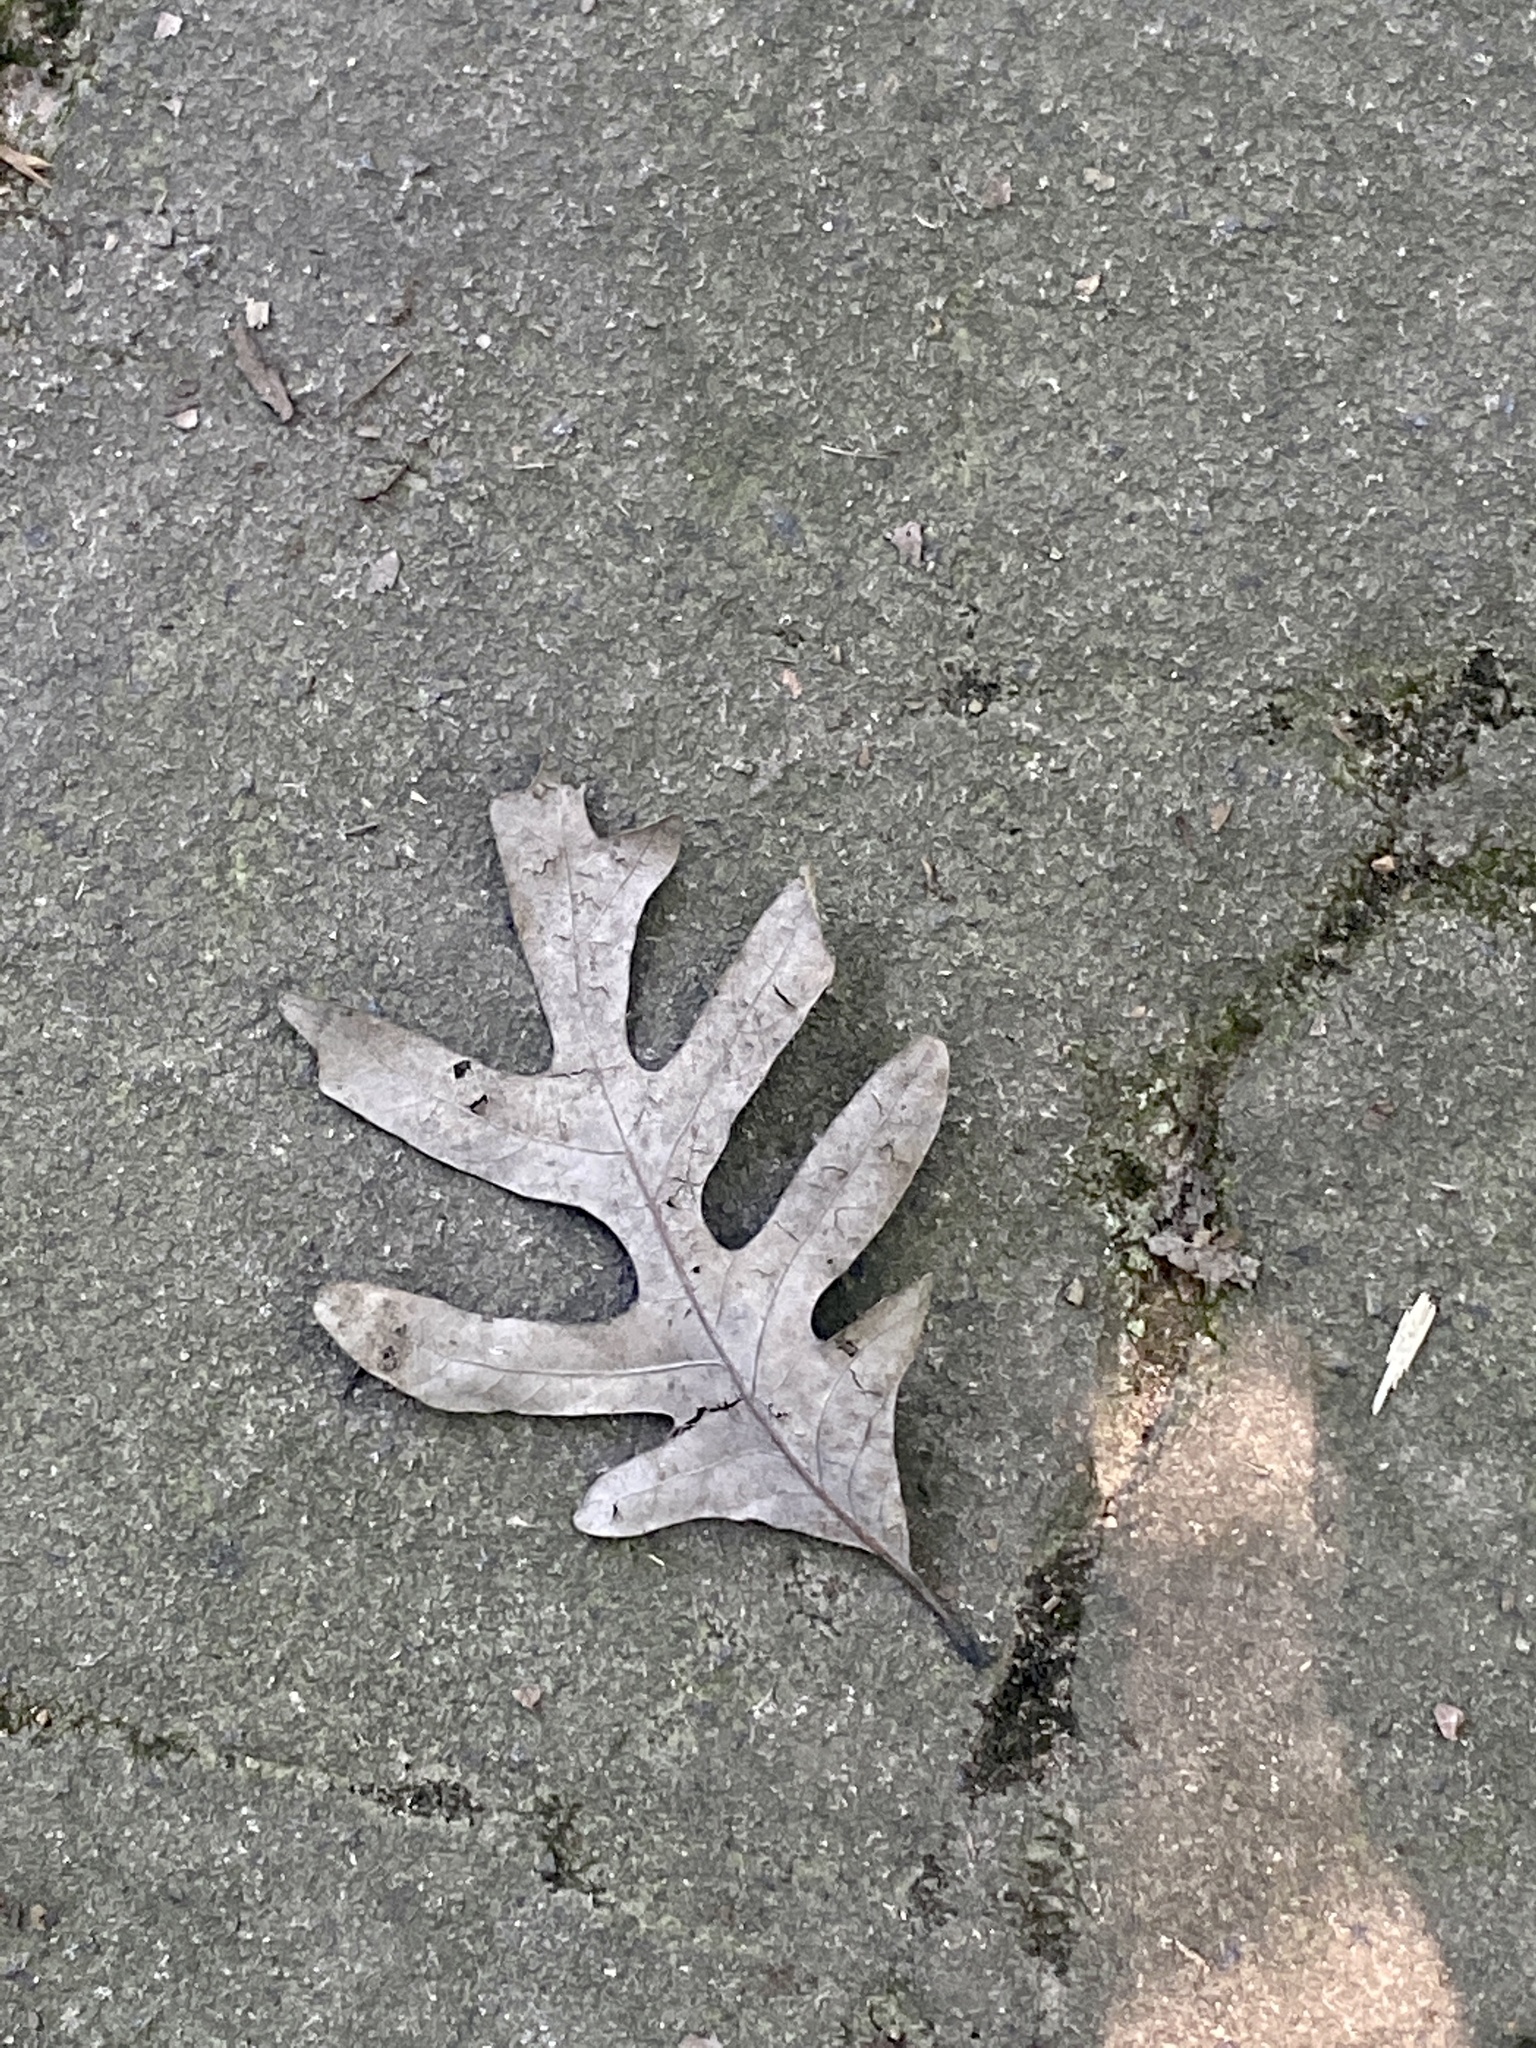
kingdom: Plantae
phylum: Tracheophyta
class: Magnoliopsida
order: Fagales
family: Fagaceae
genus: Quercus
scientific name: Quercus alba
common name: White oak
